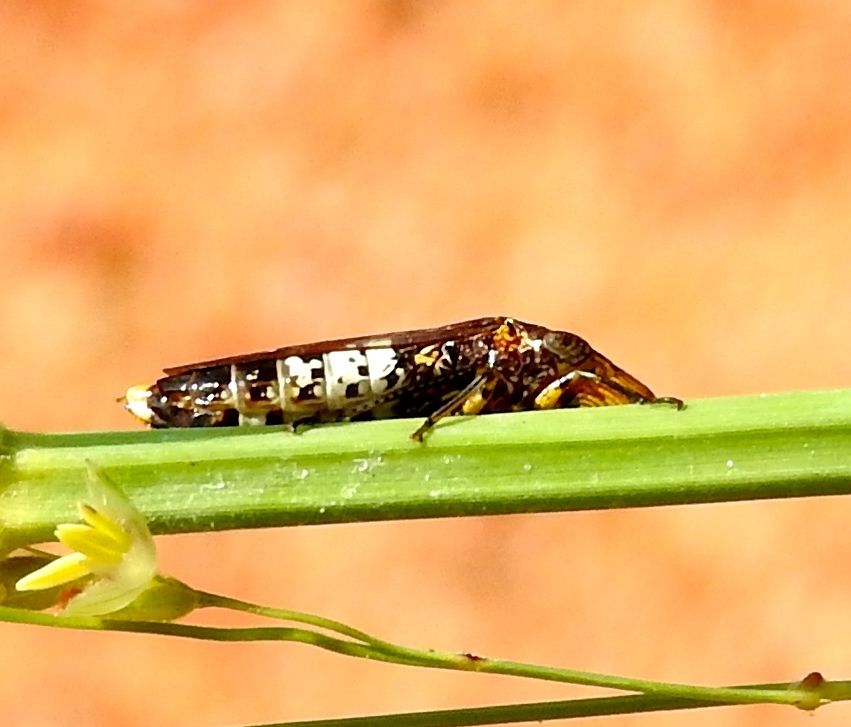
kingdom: Animalia
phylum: Arthropoda
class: Insecta
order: Hemiptera
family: Cicadellidae
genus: Homalodisca
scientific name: Homalodisca ichthyocephala
